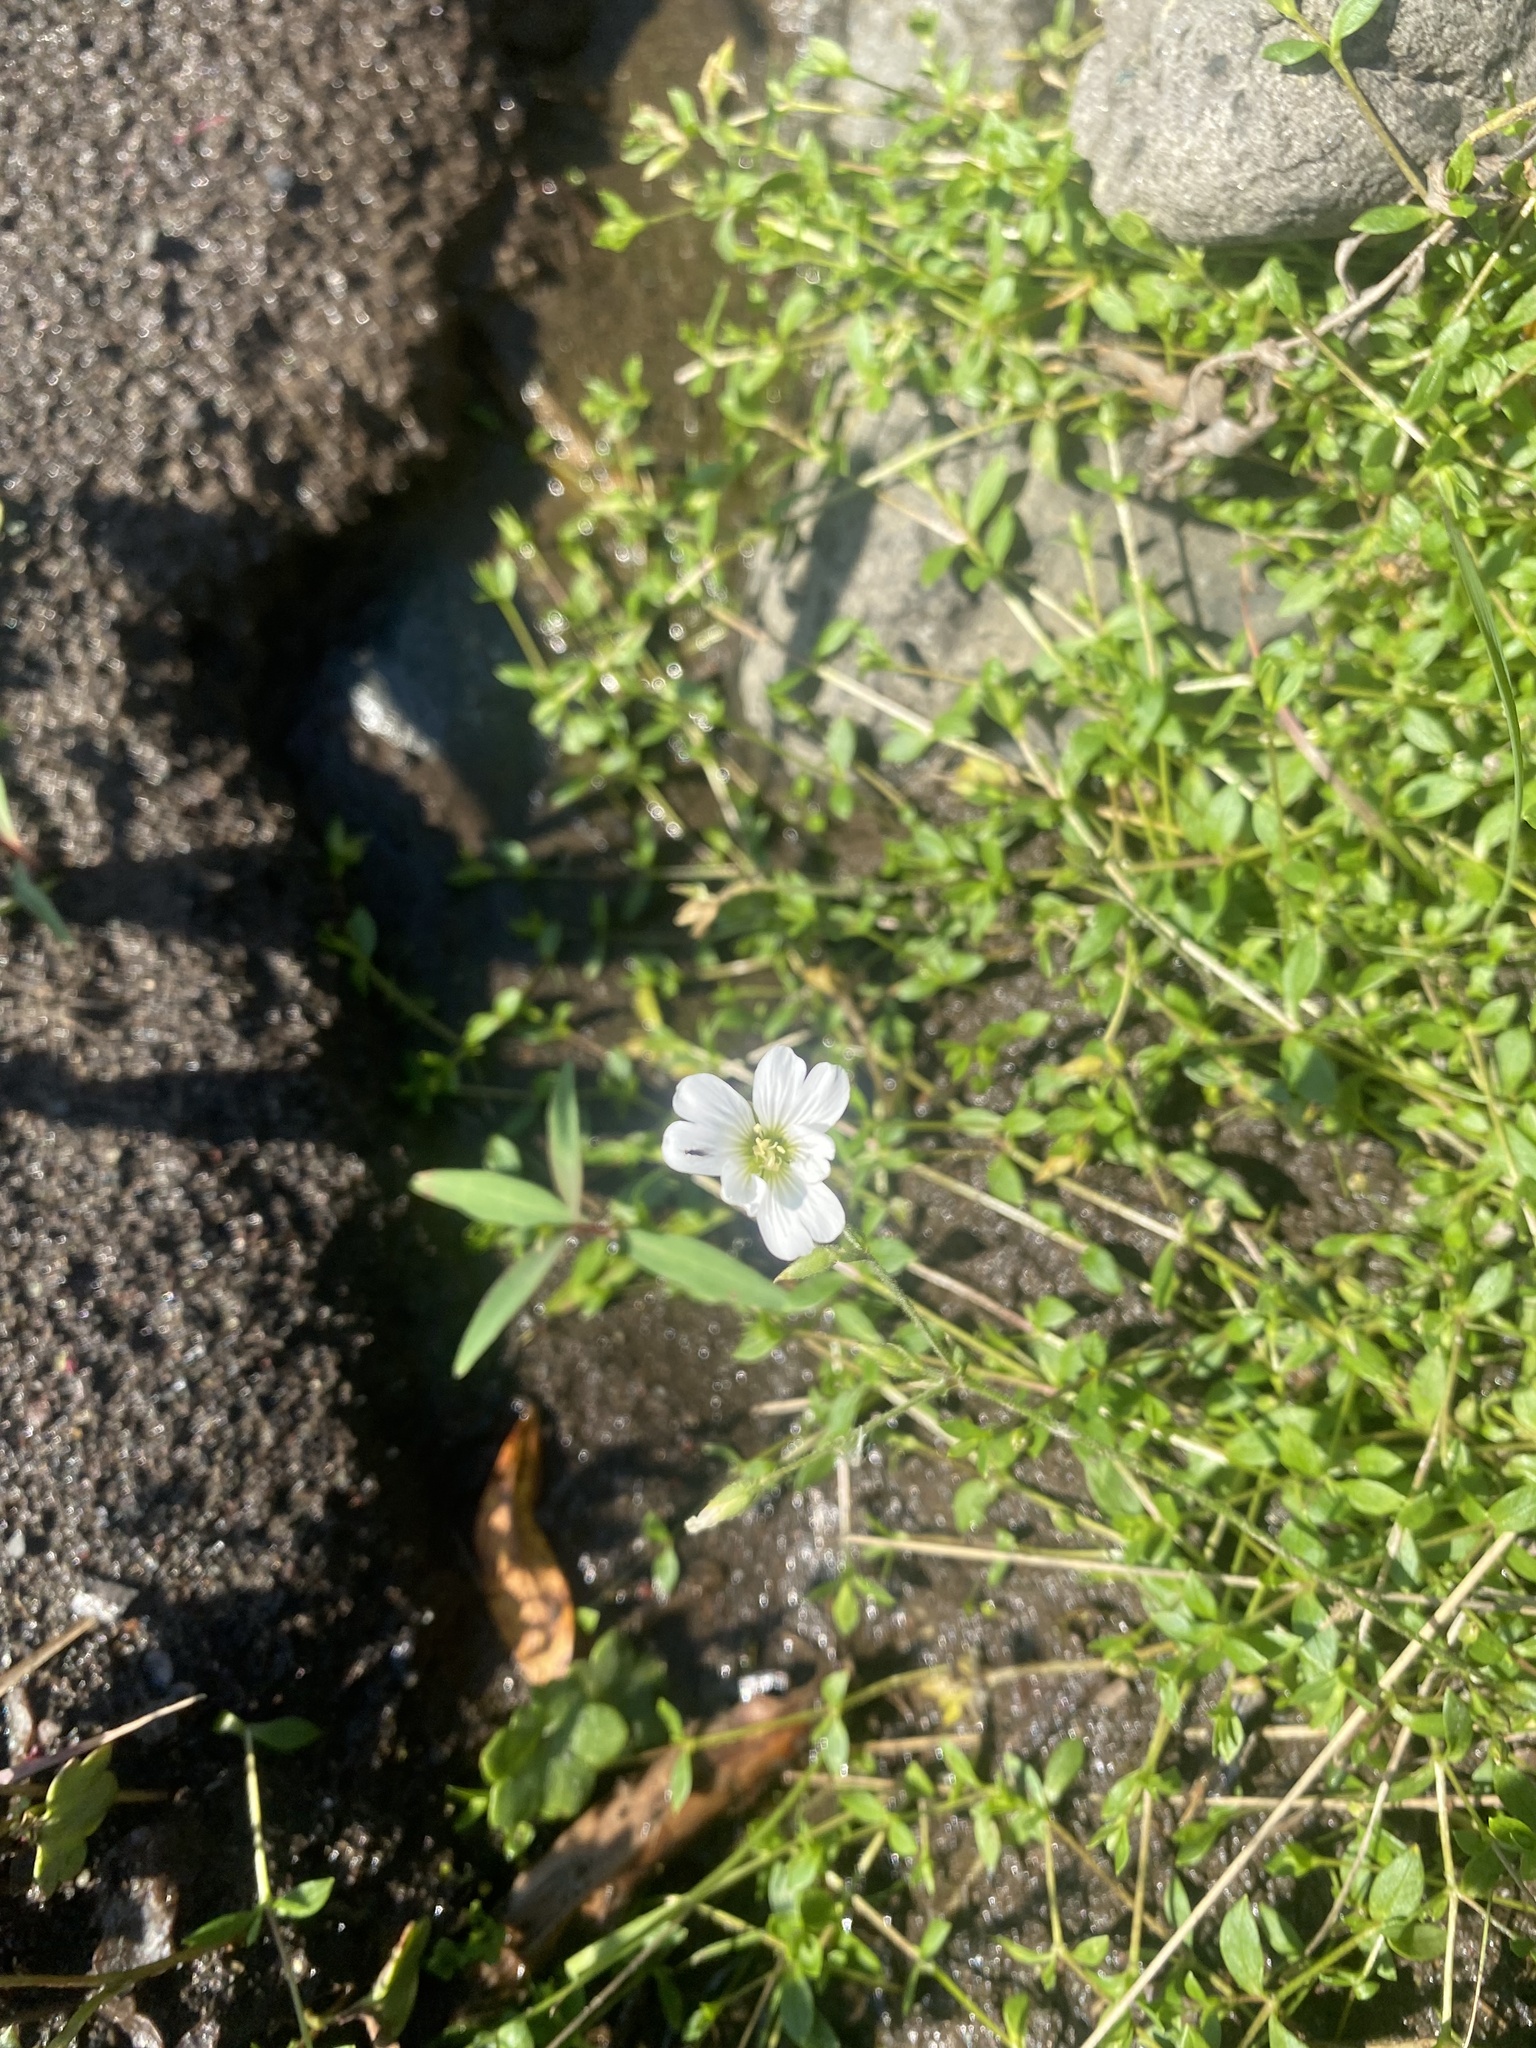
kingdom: Plantae
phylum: Tracheophyta
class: Magnoliopsida
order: Caryophyllales
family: Caryophyllaceae
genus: Cerastium
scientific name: Cerastium arvense
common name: Field mouse-ear
